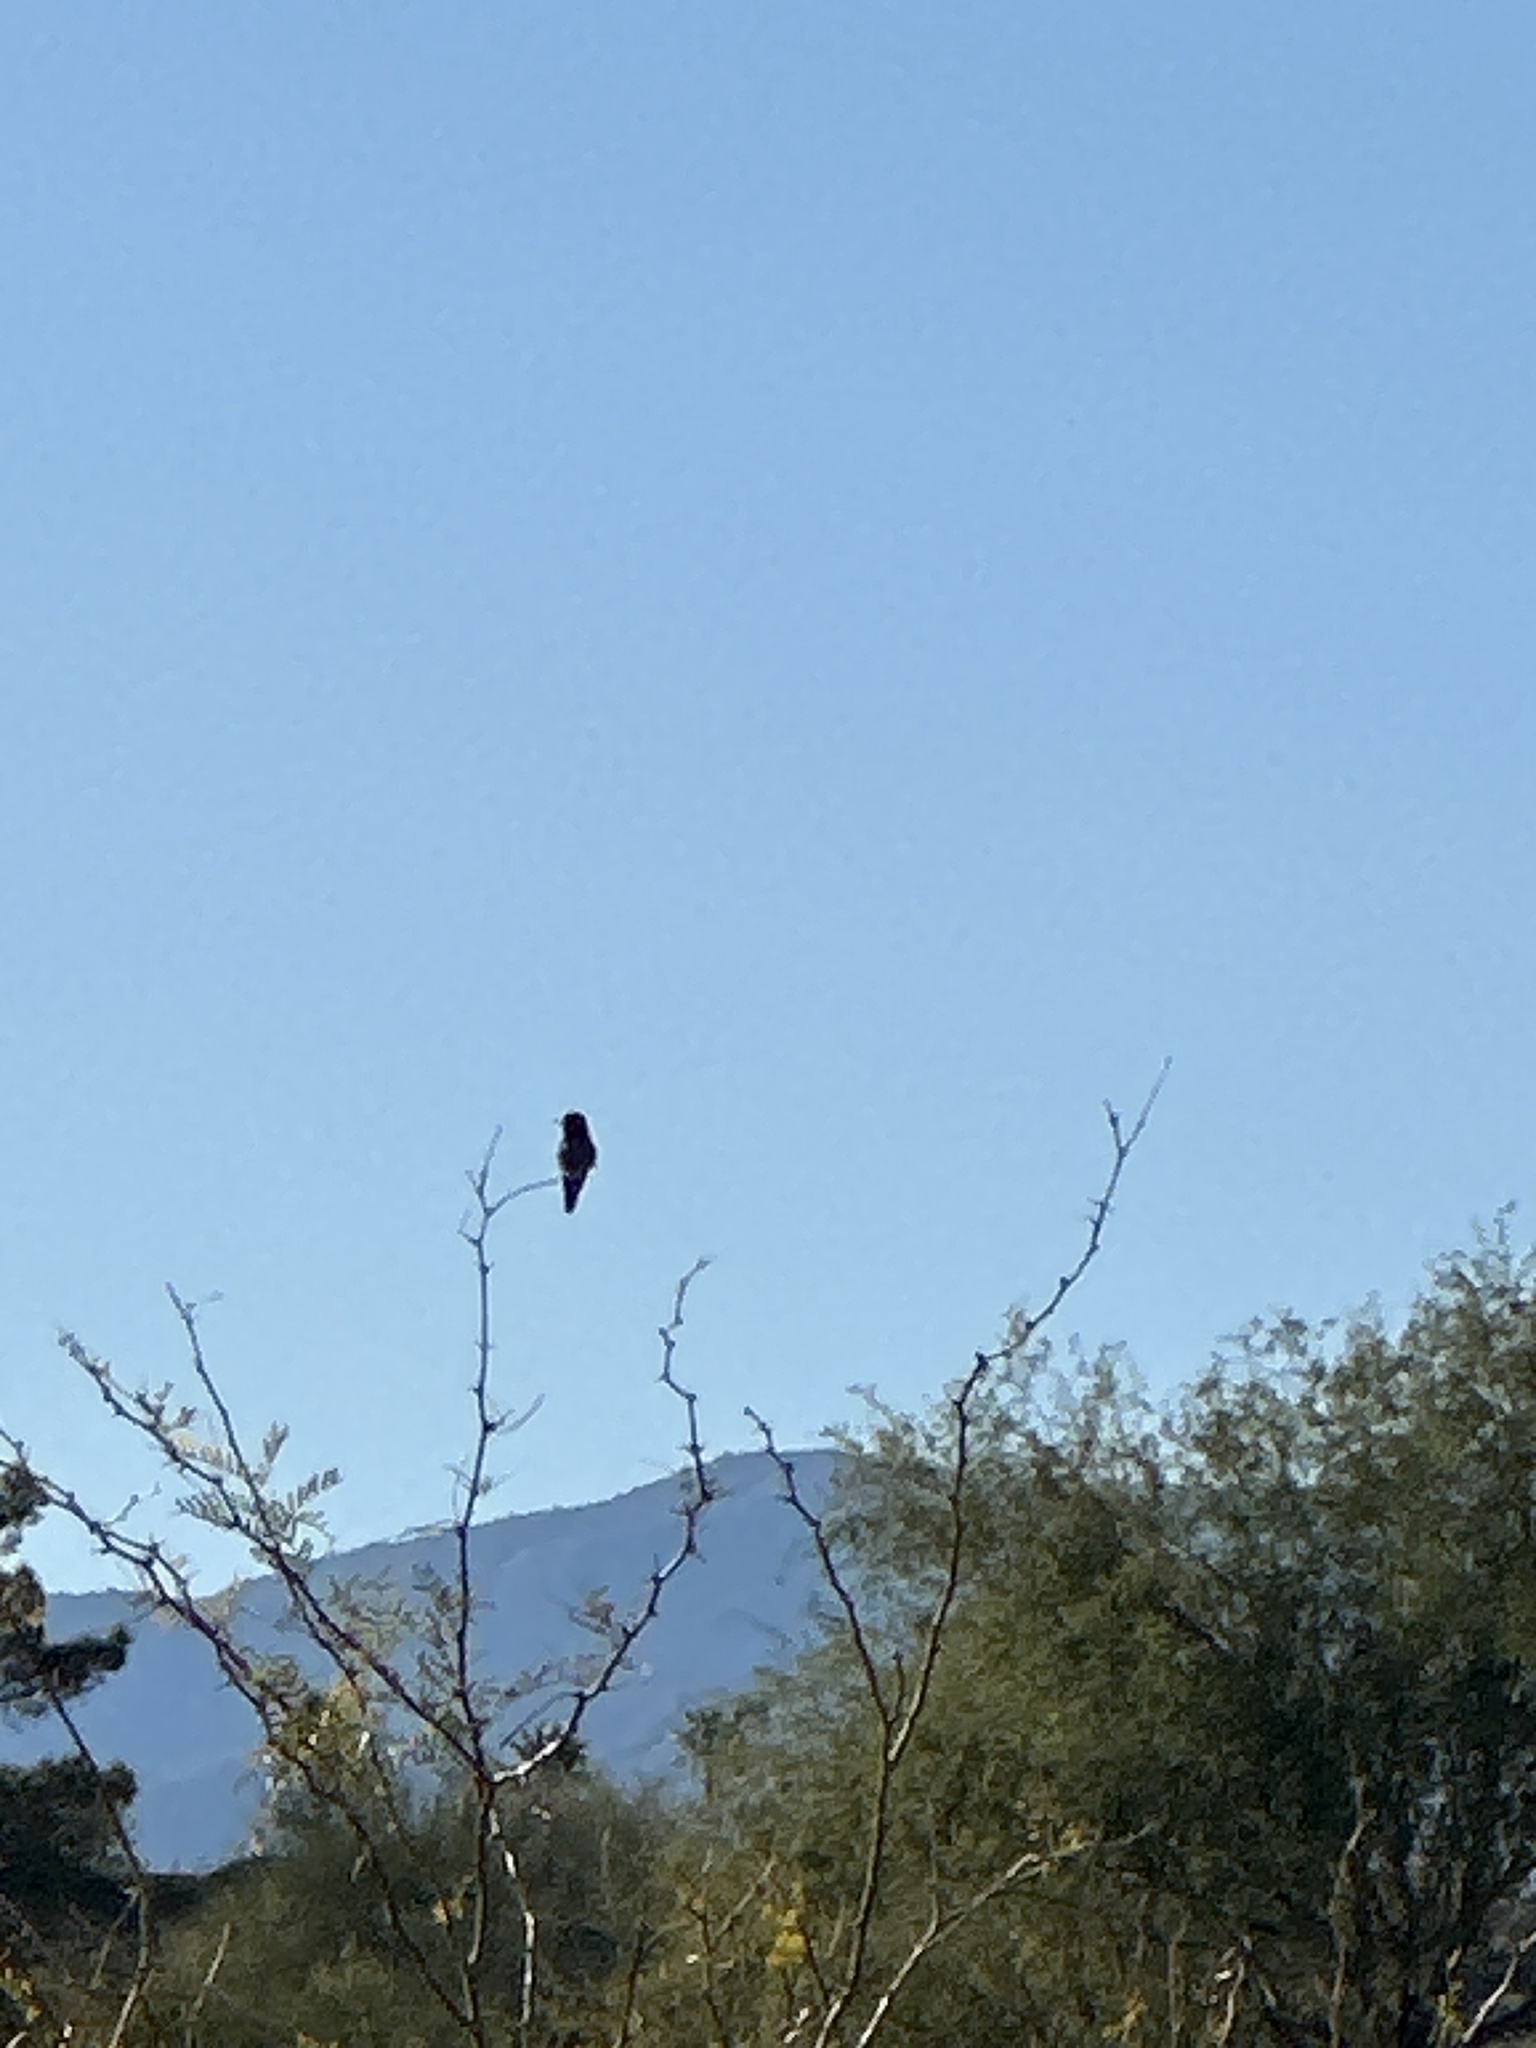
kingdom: Animalia
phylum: Chordata
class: Aves
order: Apodiformes
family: Trochilidae
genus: Calypte
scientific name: Calypte anna
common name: Anna's hummingbird
